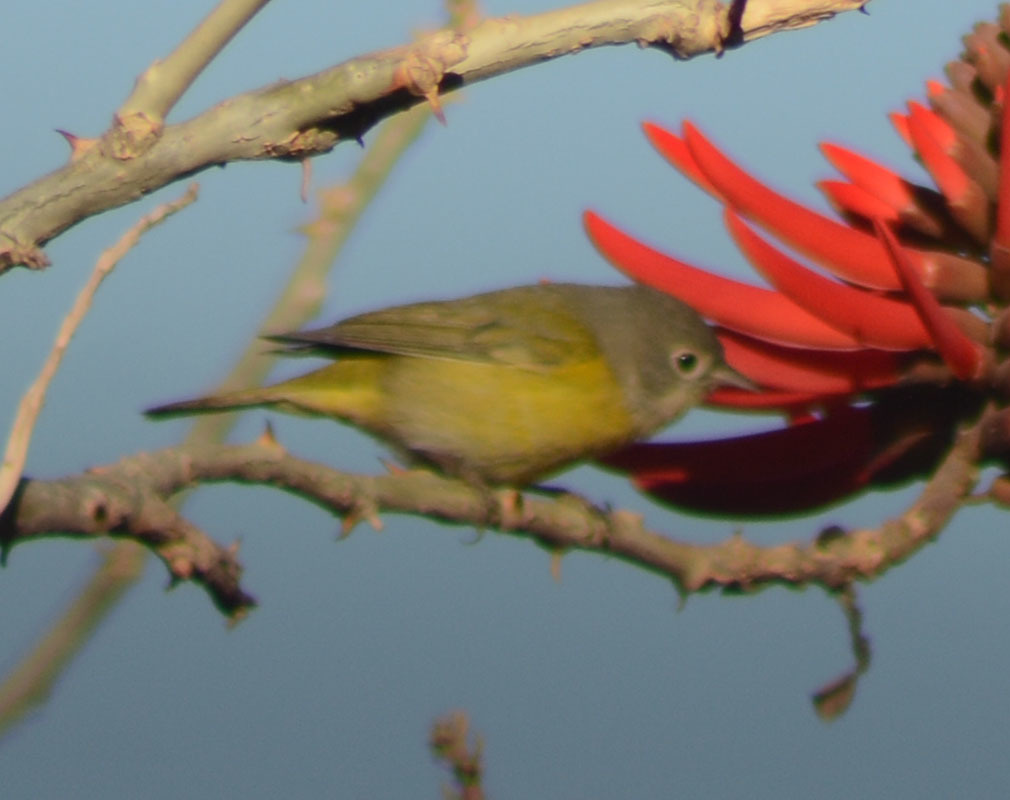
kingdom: Animalia
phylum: Chordata
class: Aves
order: Passeriformes
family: Parulidae
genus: Leiothlypis
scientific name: Leiothlypis ruficapilla
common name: Nashville warbler
